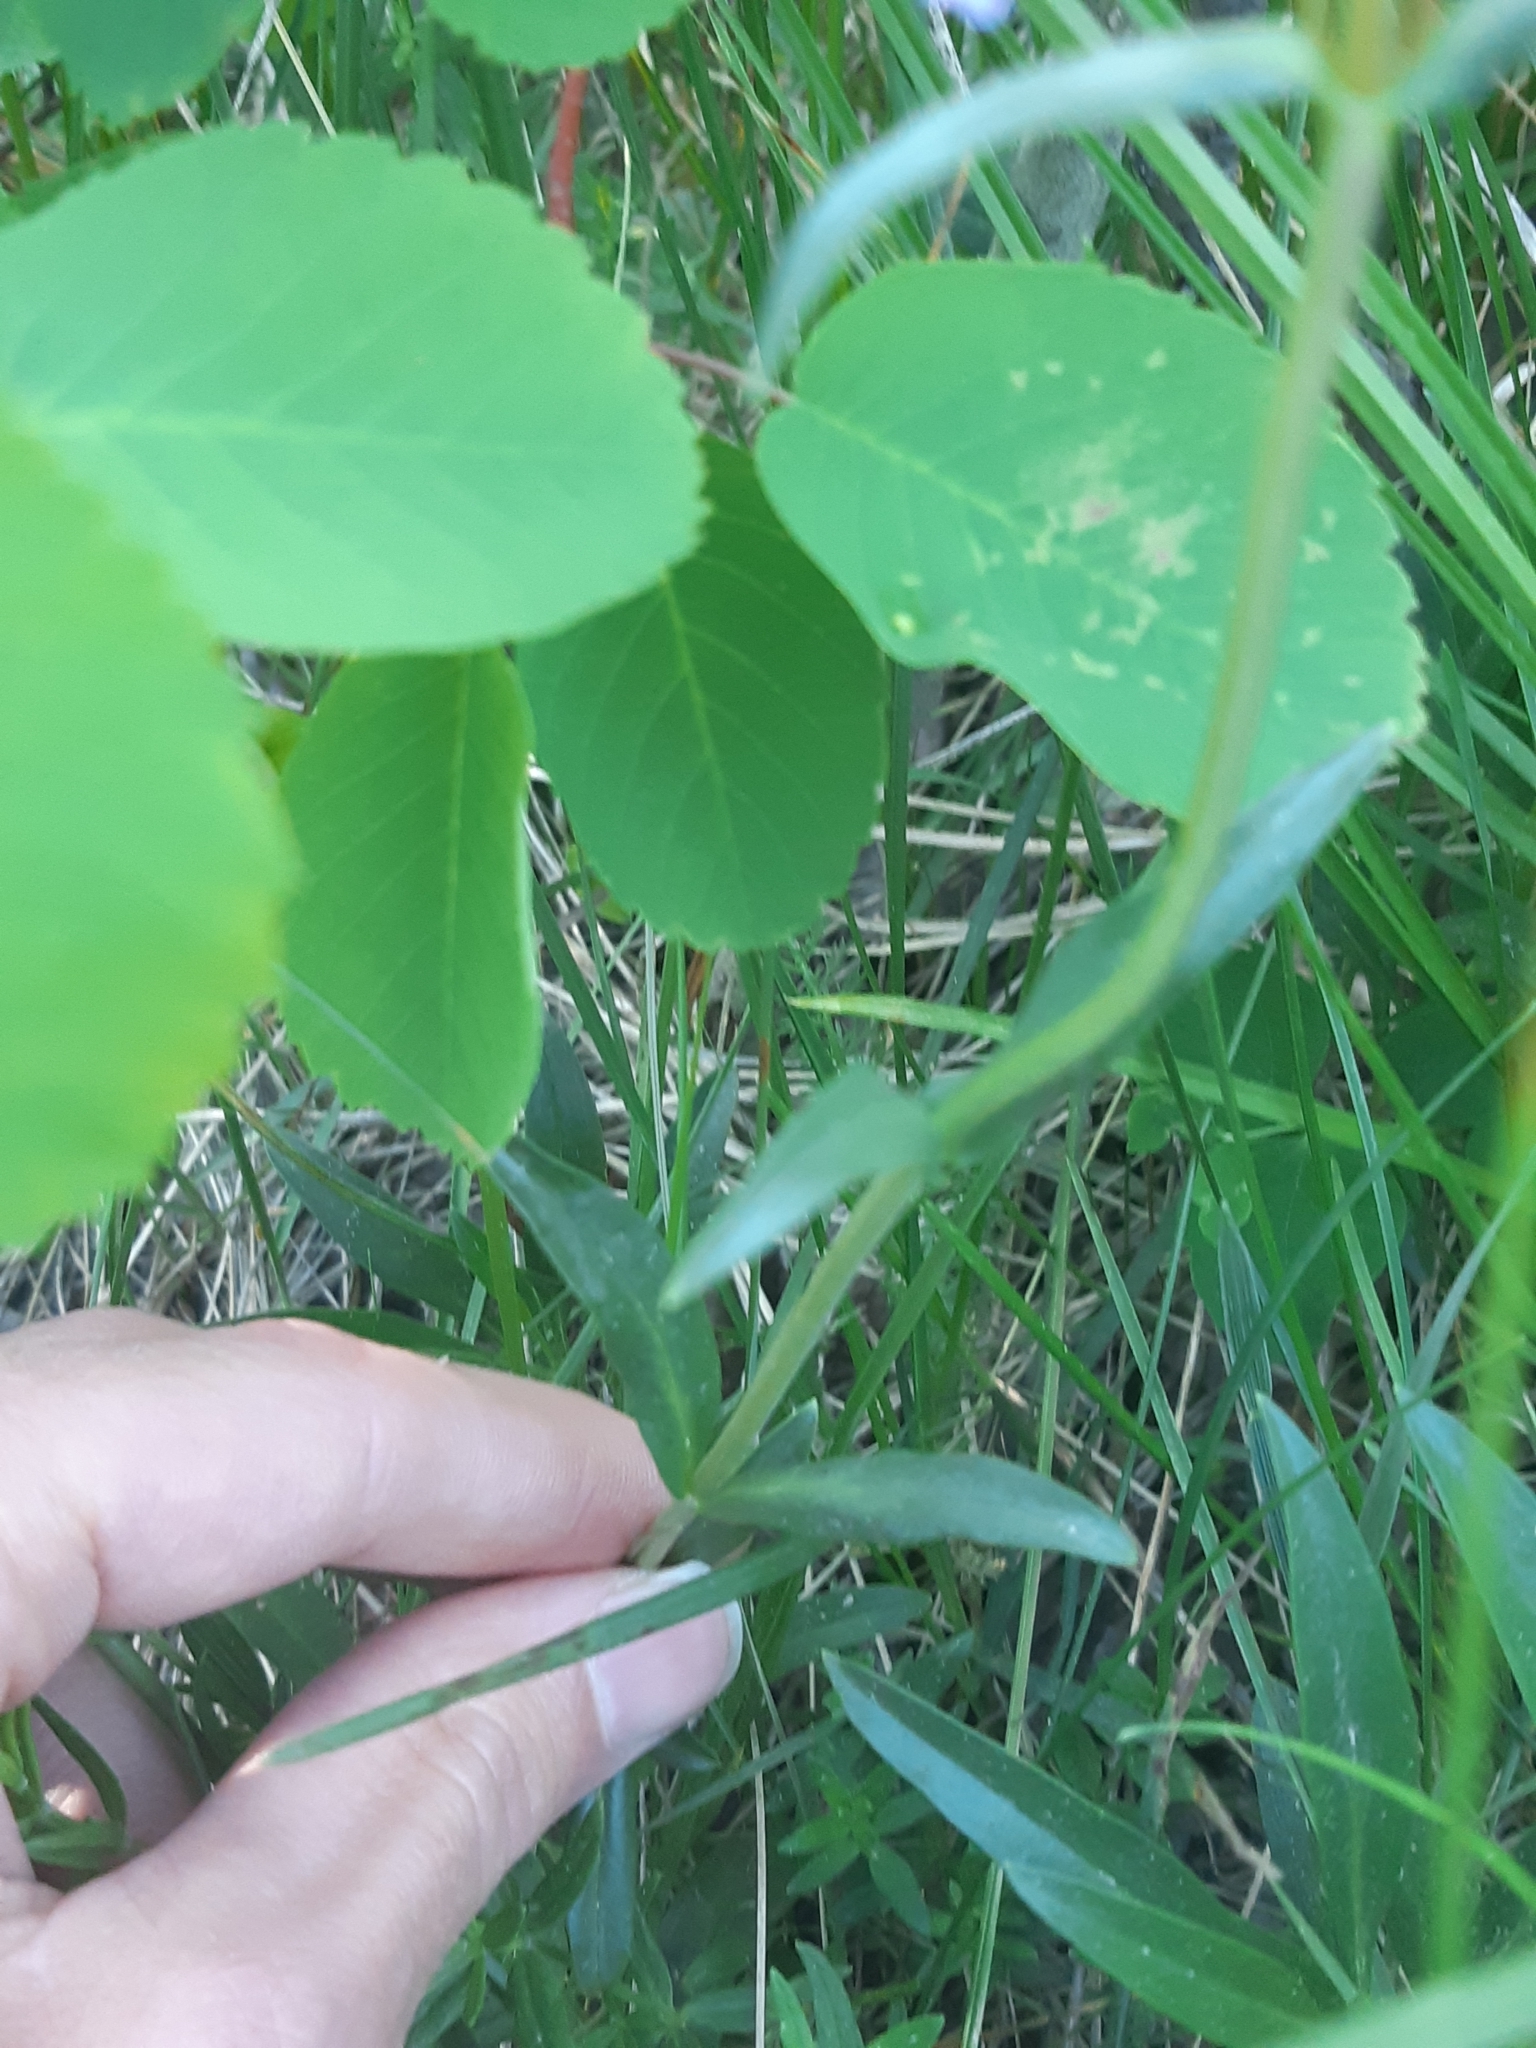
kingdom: Plantae
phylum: Tracheophyta
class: Magnoliopsida
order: Lamiales
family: Plantaginaceae
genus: Penstemon
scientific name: Penstemon procerus
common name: Small-flower penstemon
